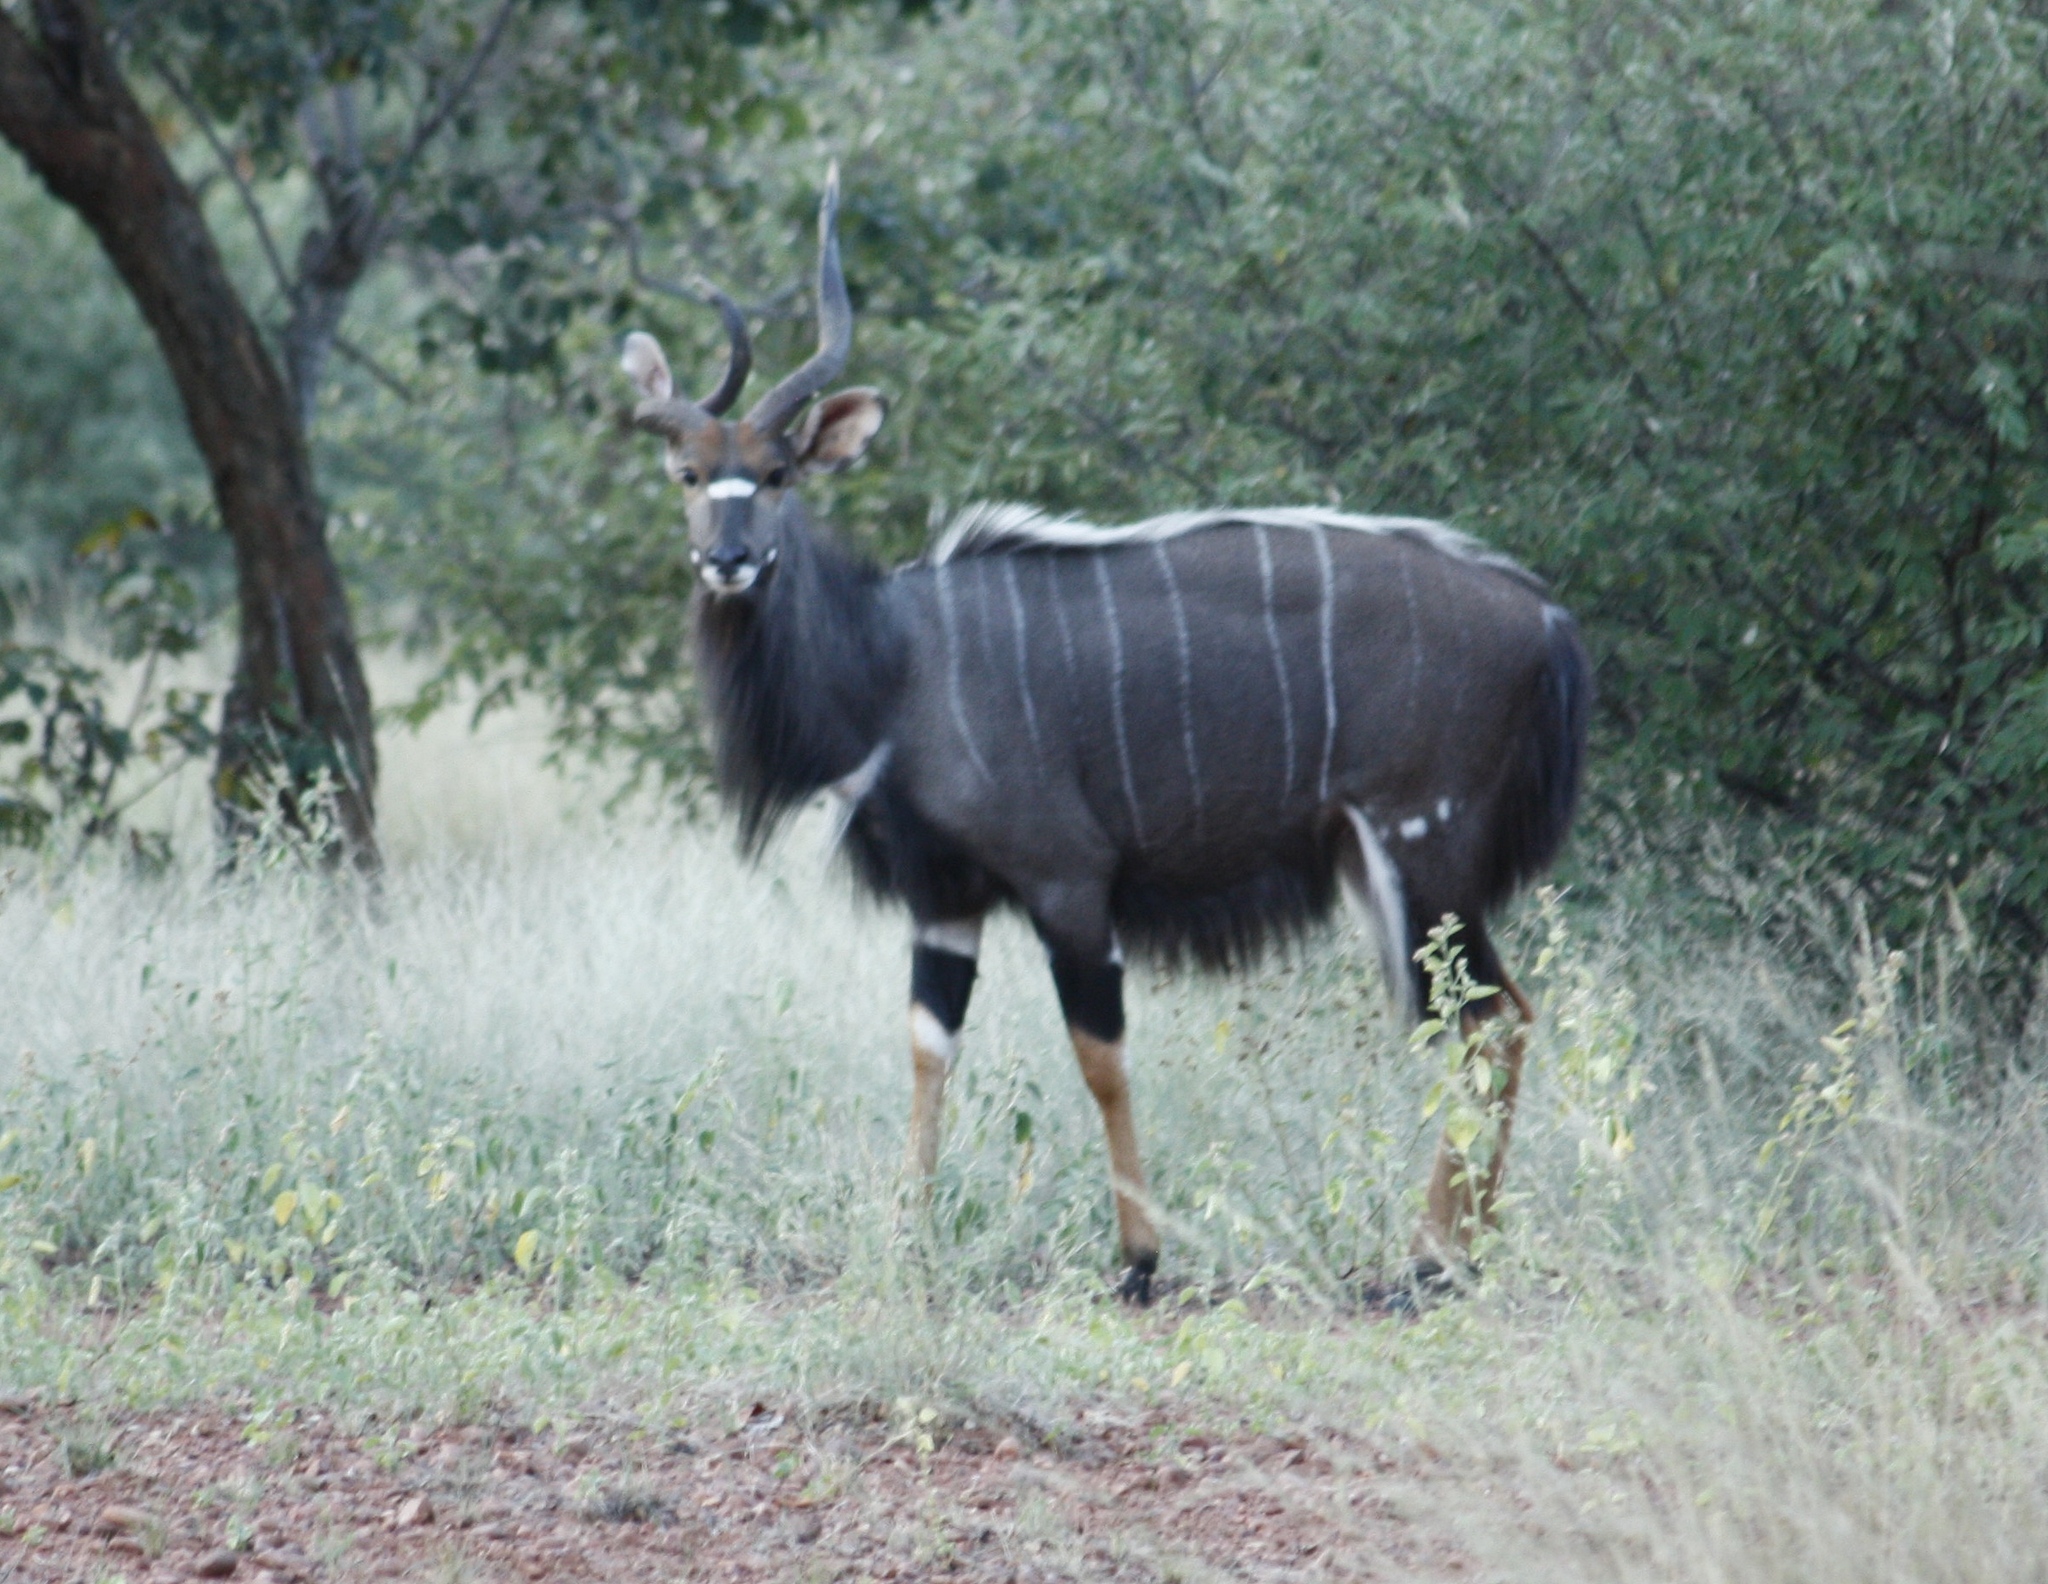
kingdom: Animalia
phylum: Chordata
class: Mammalia
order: Artiodactyla
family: Bovidae
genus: Tragelaphus
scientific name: Tragelaphus angasii
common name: Nyala
